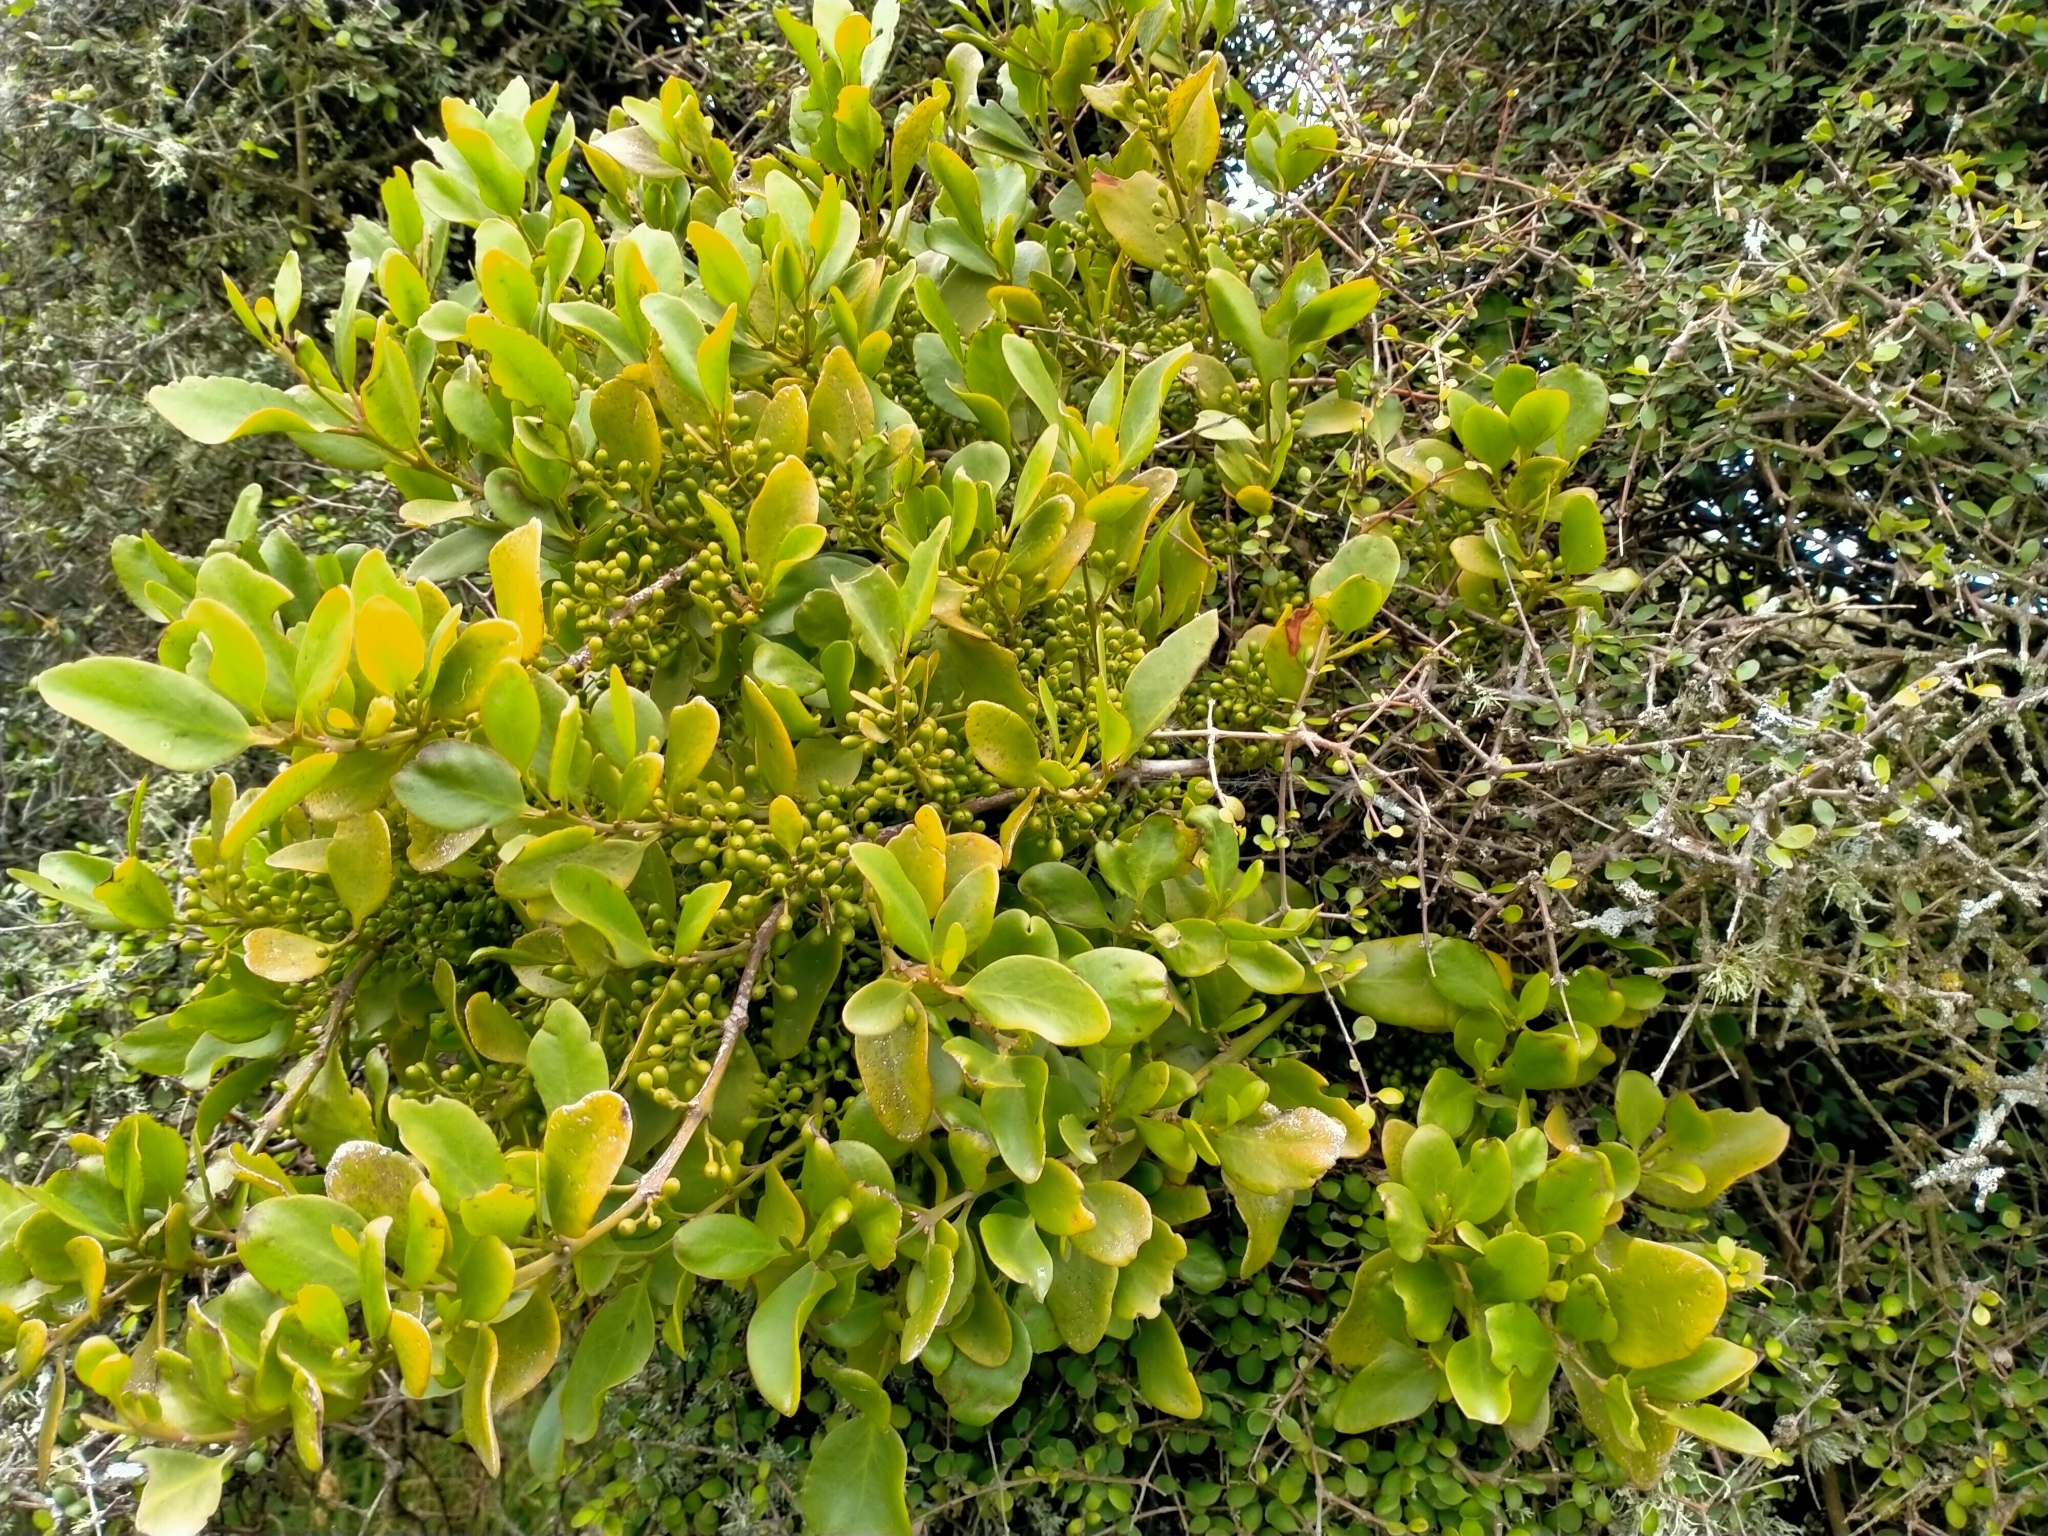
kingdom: Plantae
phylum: Tracheophyta
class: Magnoliopsida
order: Santalales
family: Loranthaceae
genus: Ileostylus
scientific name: Ileostylus micranthus
